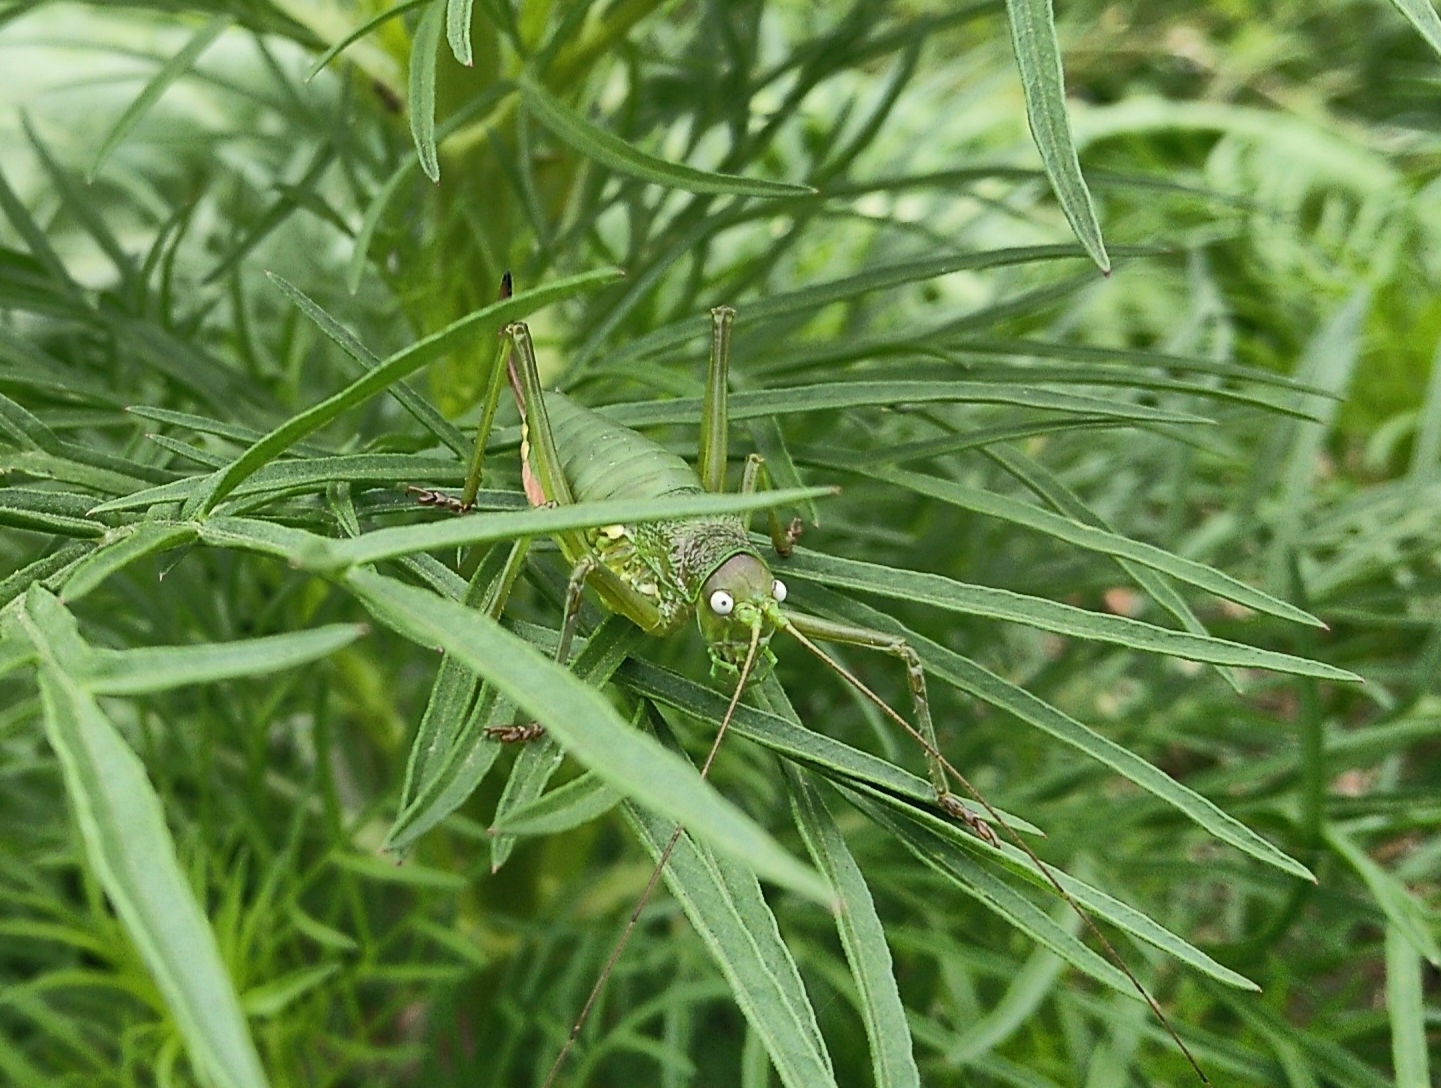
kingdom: Animalia
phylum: Arthropoda
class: Insecta
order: Orthoptera
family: Tettigoniidae
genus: Uromenus
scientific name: Uromenus rugosicollis
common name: Rough saddle bush-cricket
